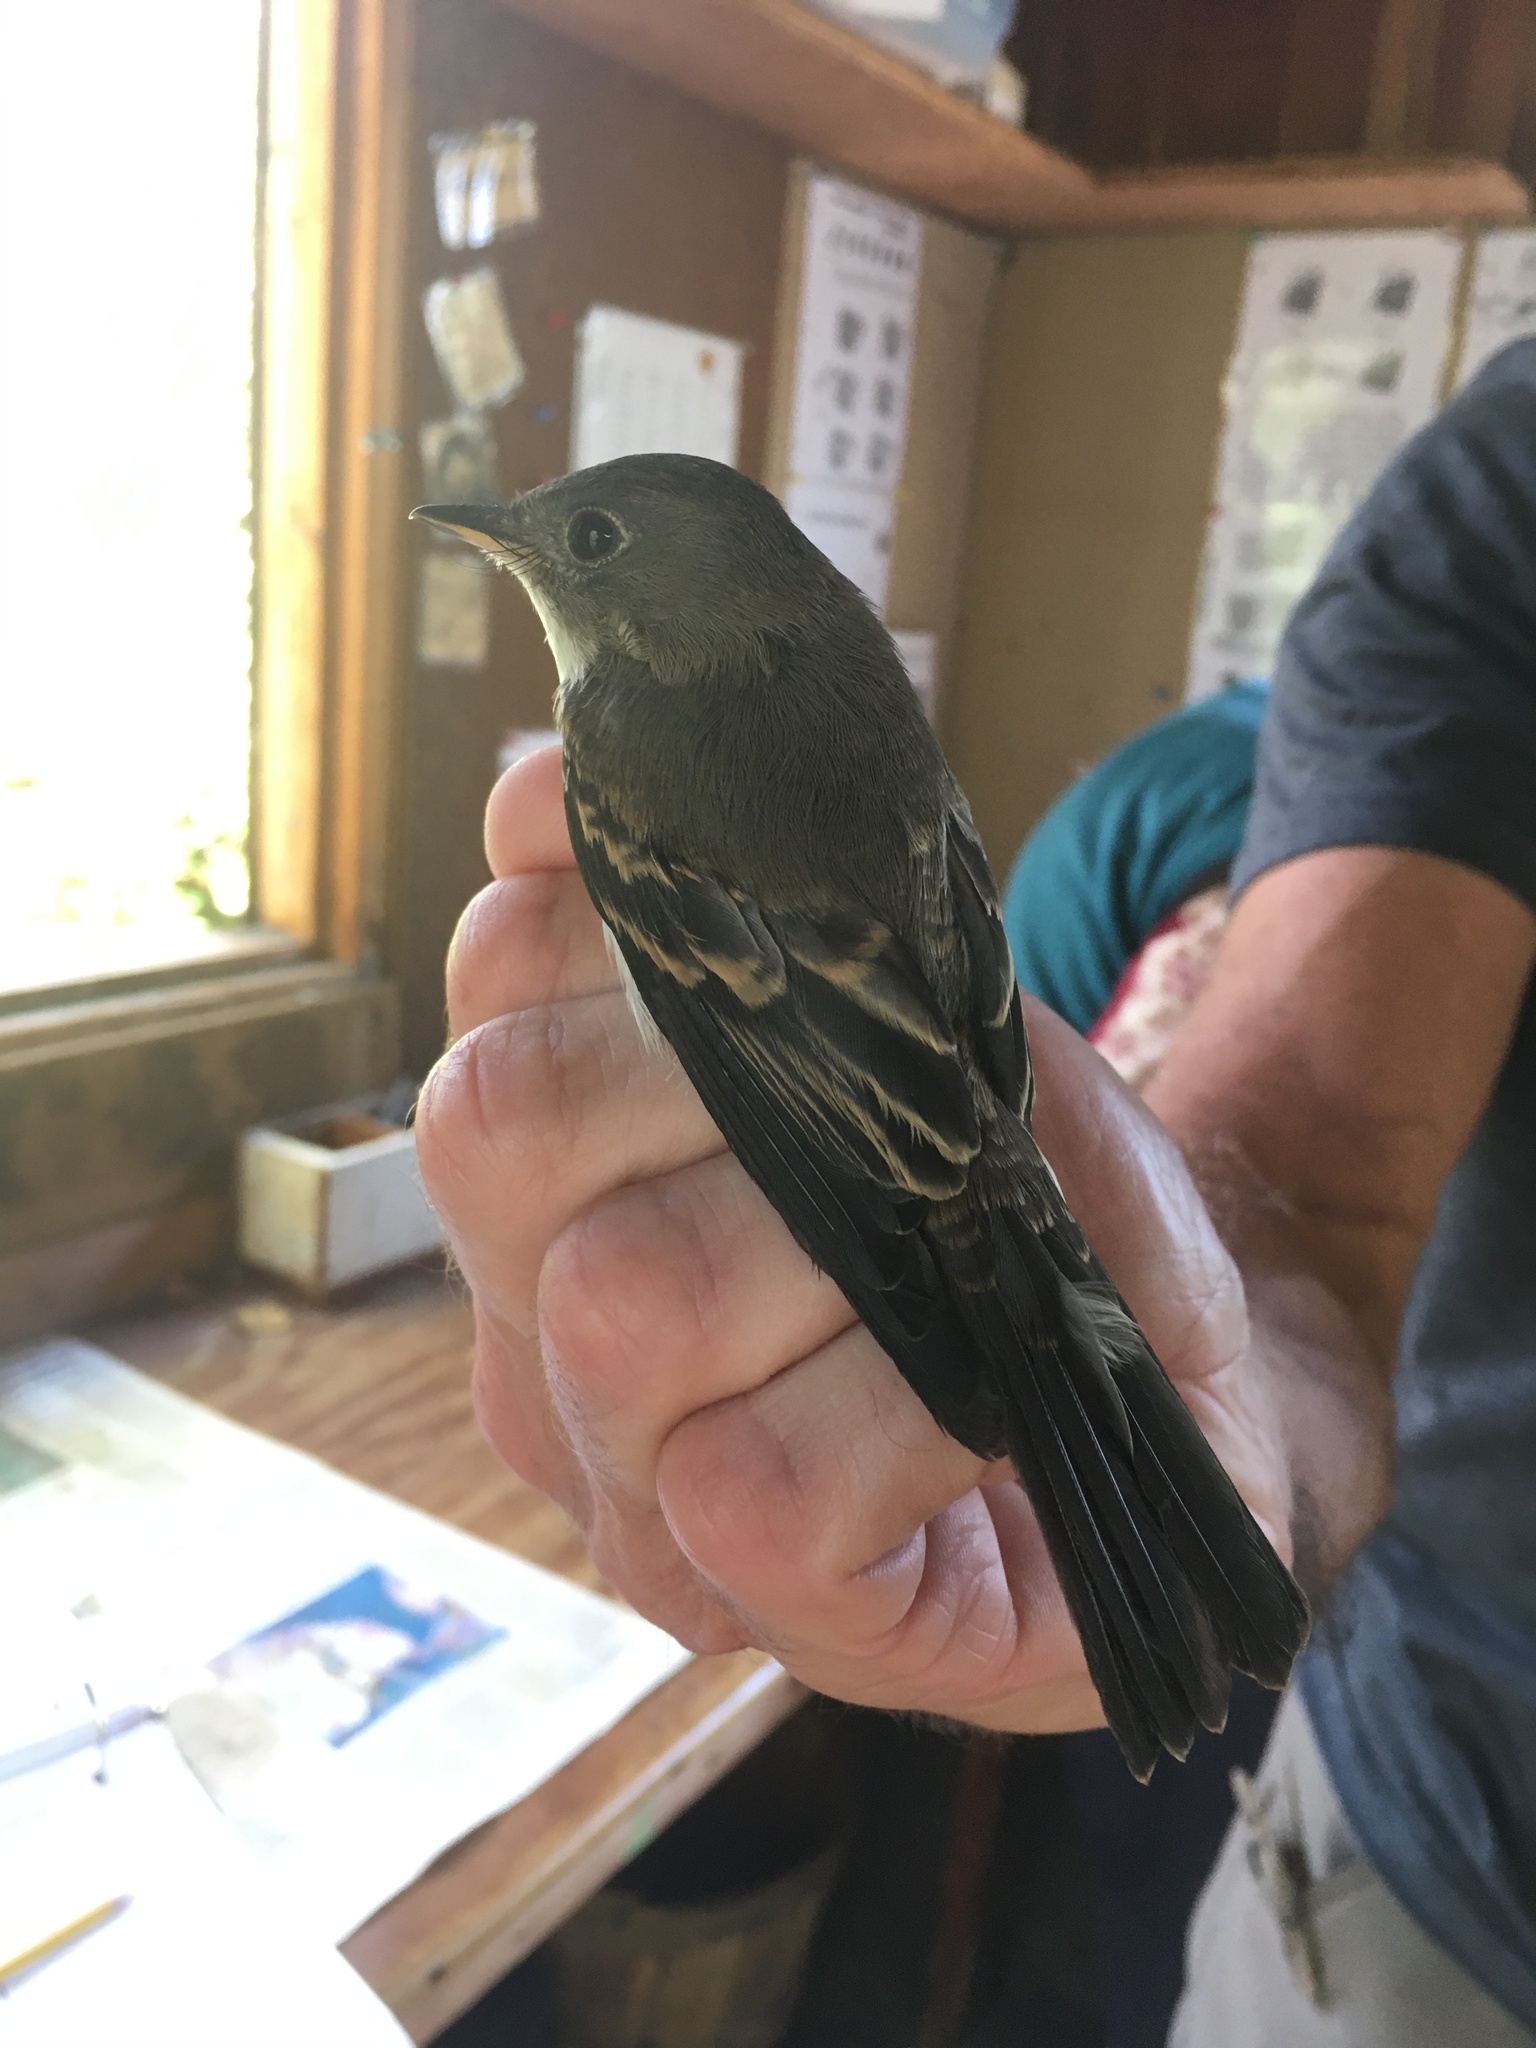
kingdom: Animalia
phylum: Chordata
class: Aves
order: Passeriformes
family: Tyrannidae
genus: Contopus
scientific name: Contopus virens
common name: Eastern wood-pewee
